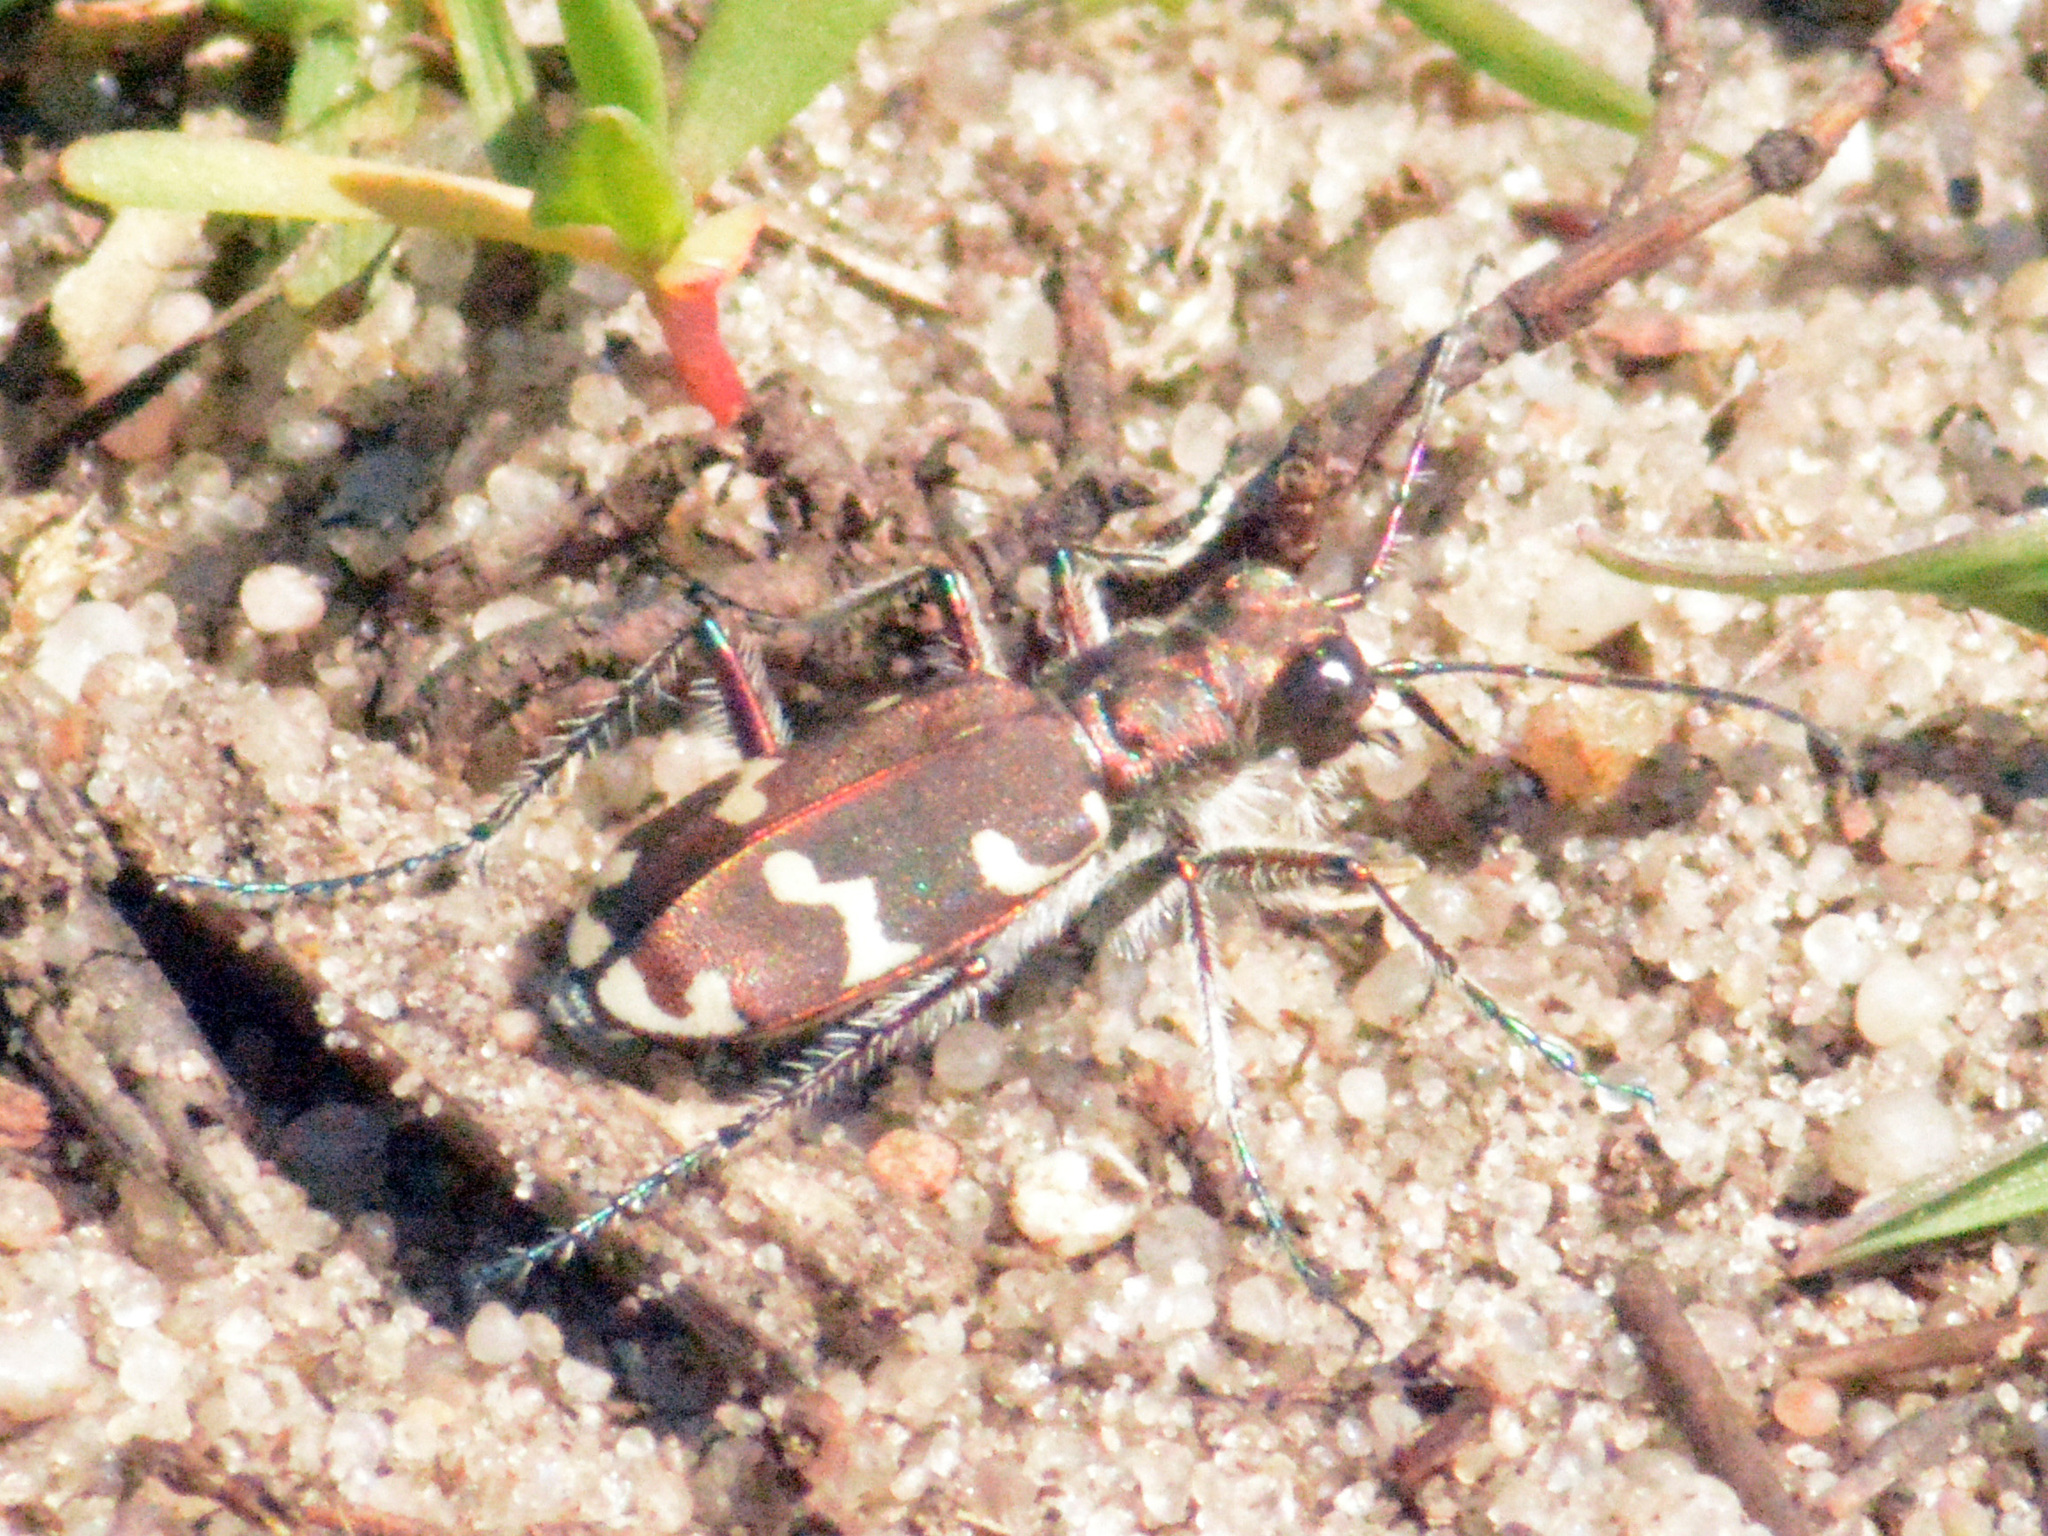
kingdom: Animalia
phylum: Arthropoda
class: Insecta
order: Coleoptera
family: Carabidae
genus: Cicindela
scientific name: Cicindela hybrida
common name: Northern dune tiger beetle
